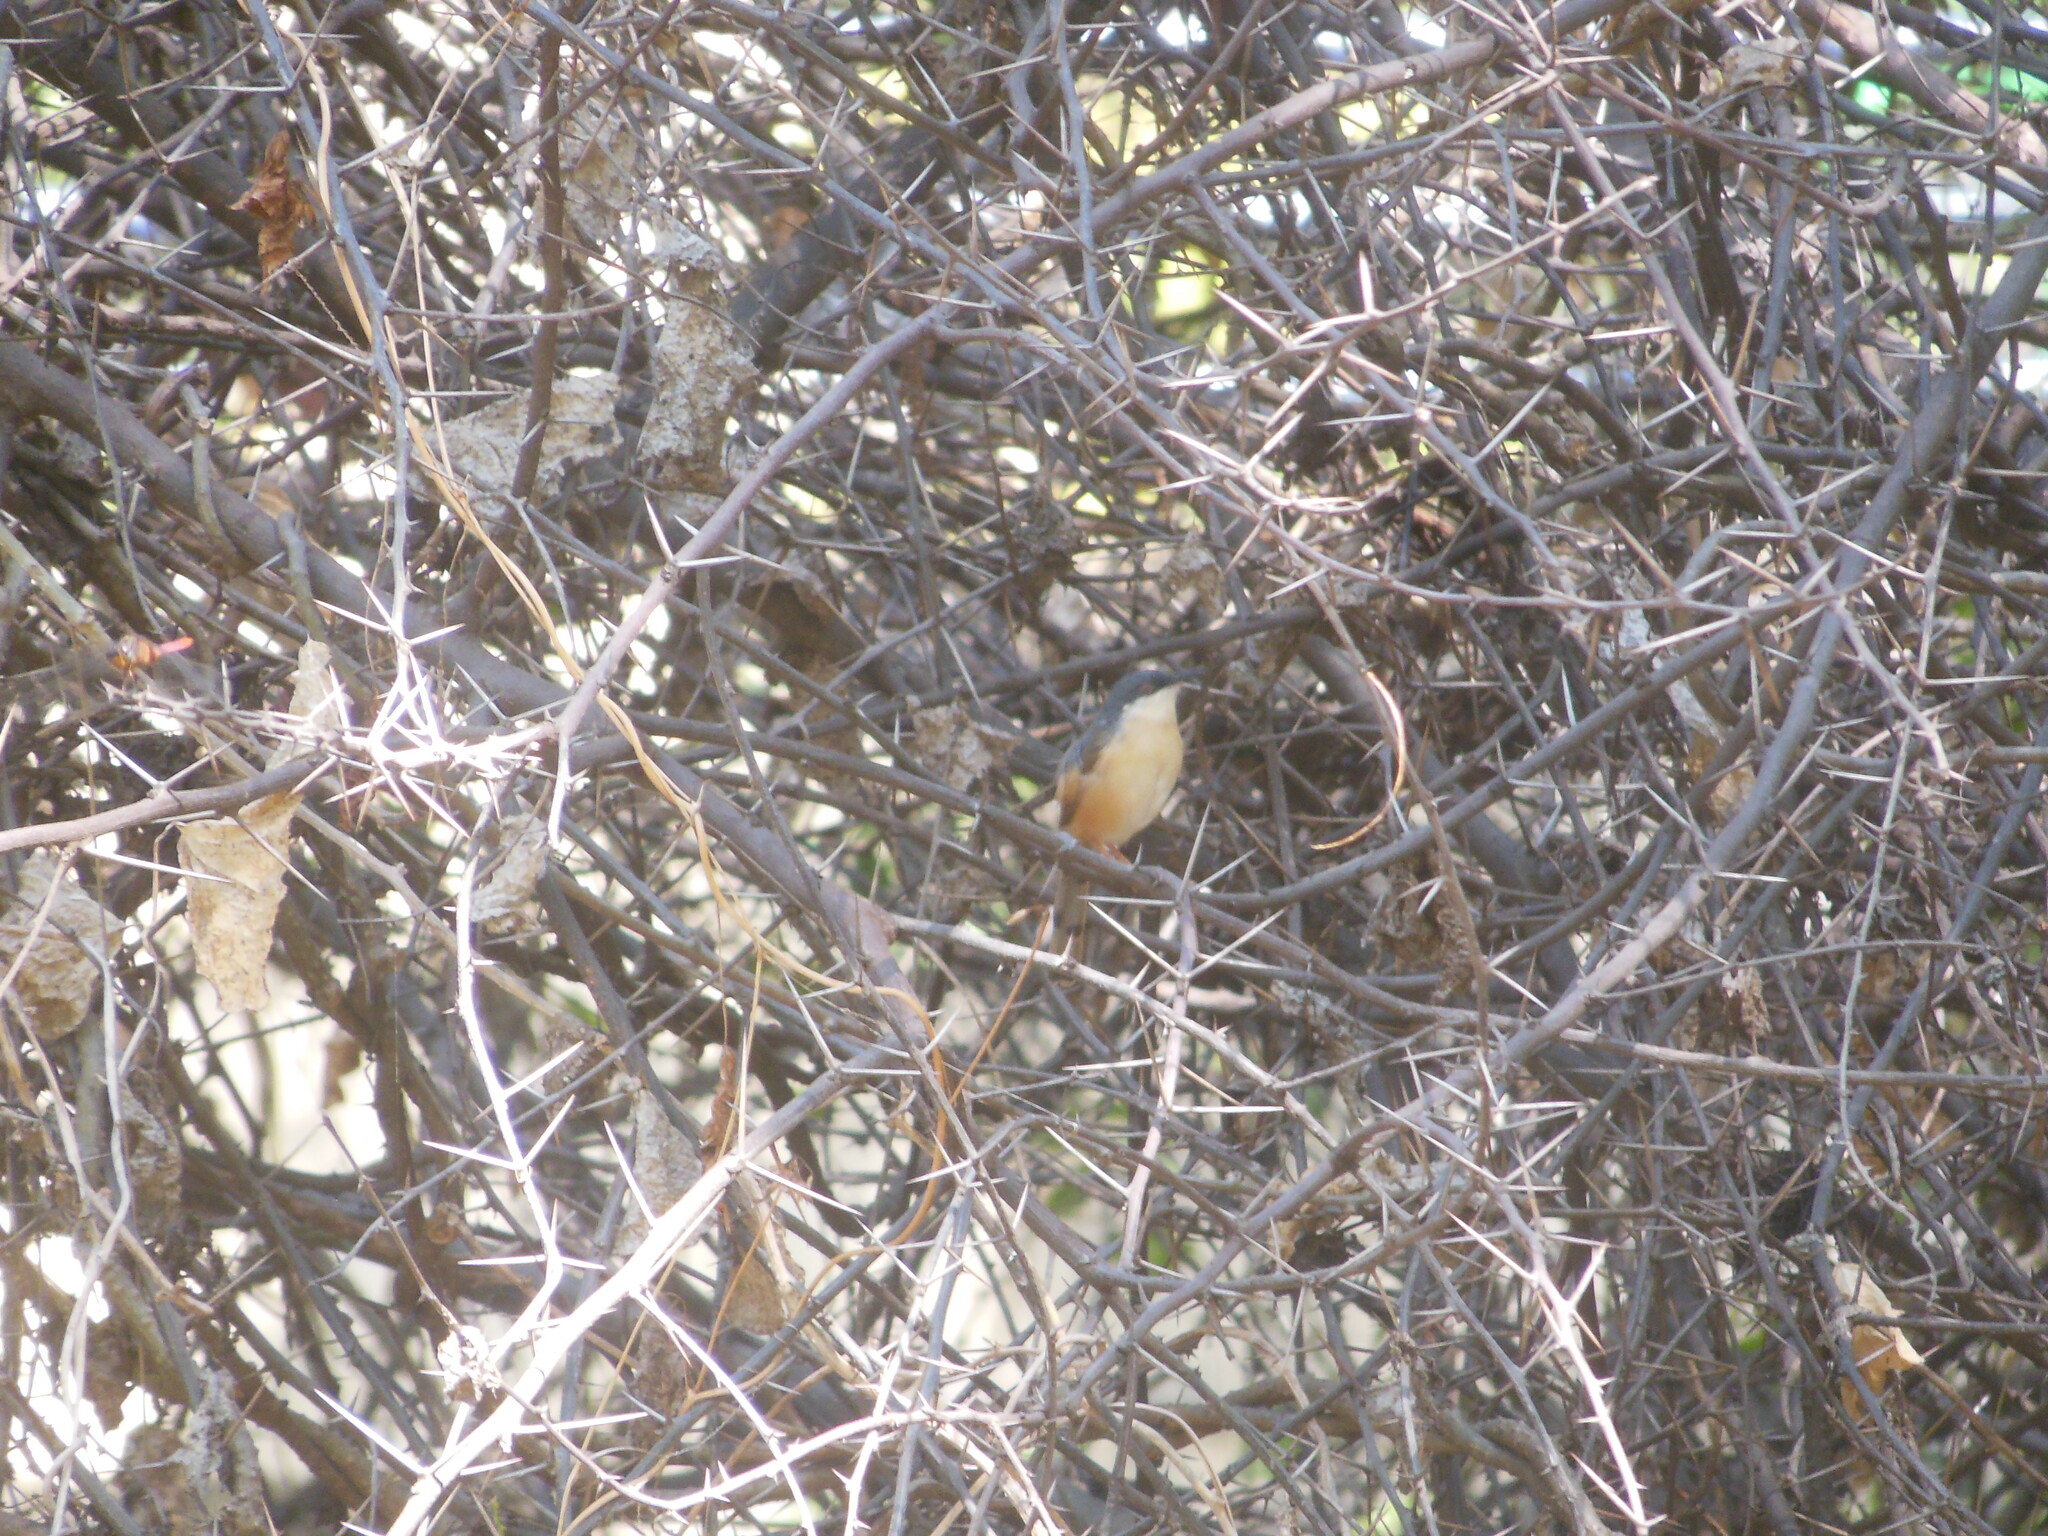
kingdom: Animalia
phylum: Chordata
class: Aves
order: Passeriformes
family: Cisticolidae
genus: Prinia
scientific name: Prinia socialis
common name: Ashy prinia
